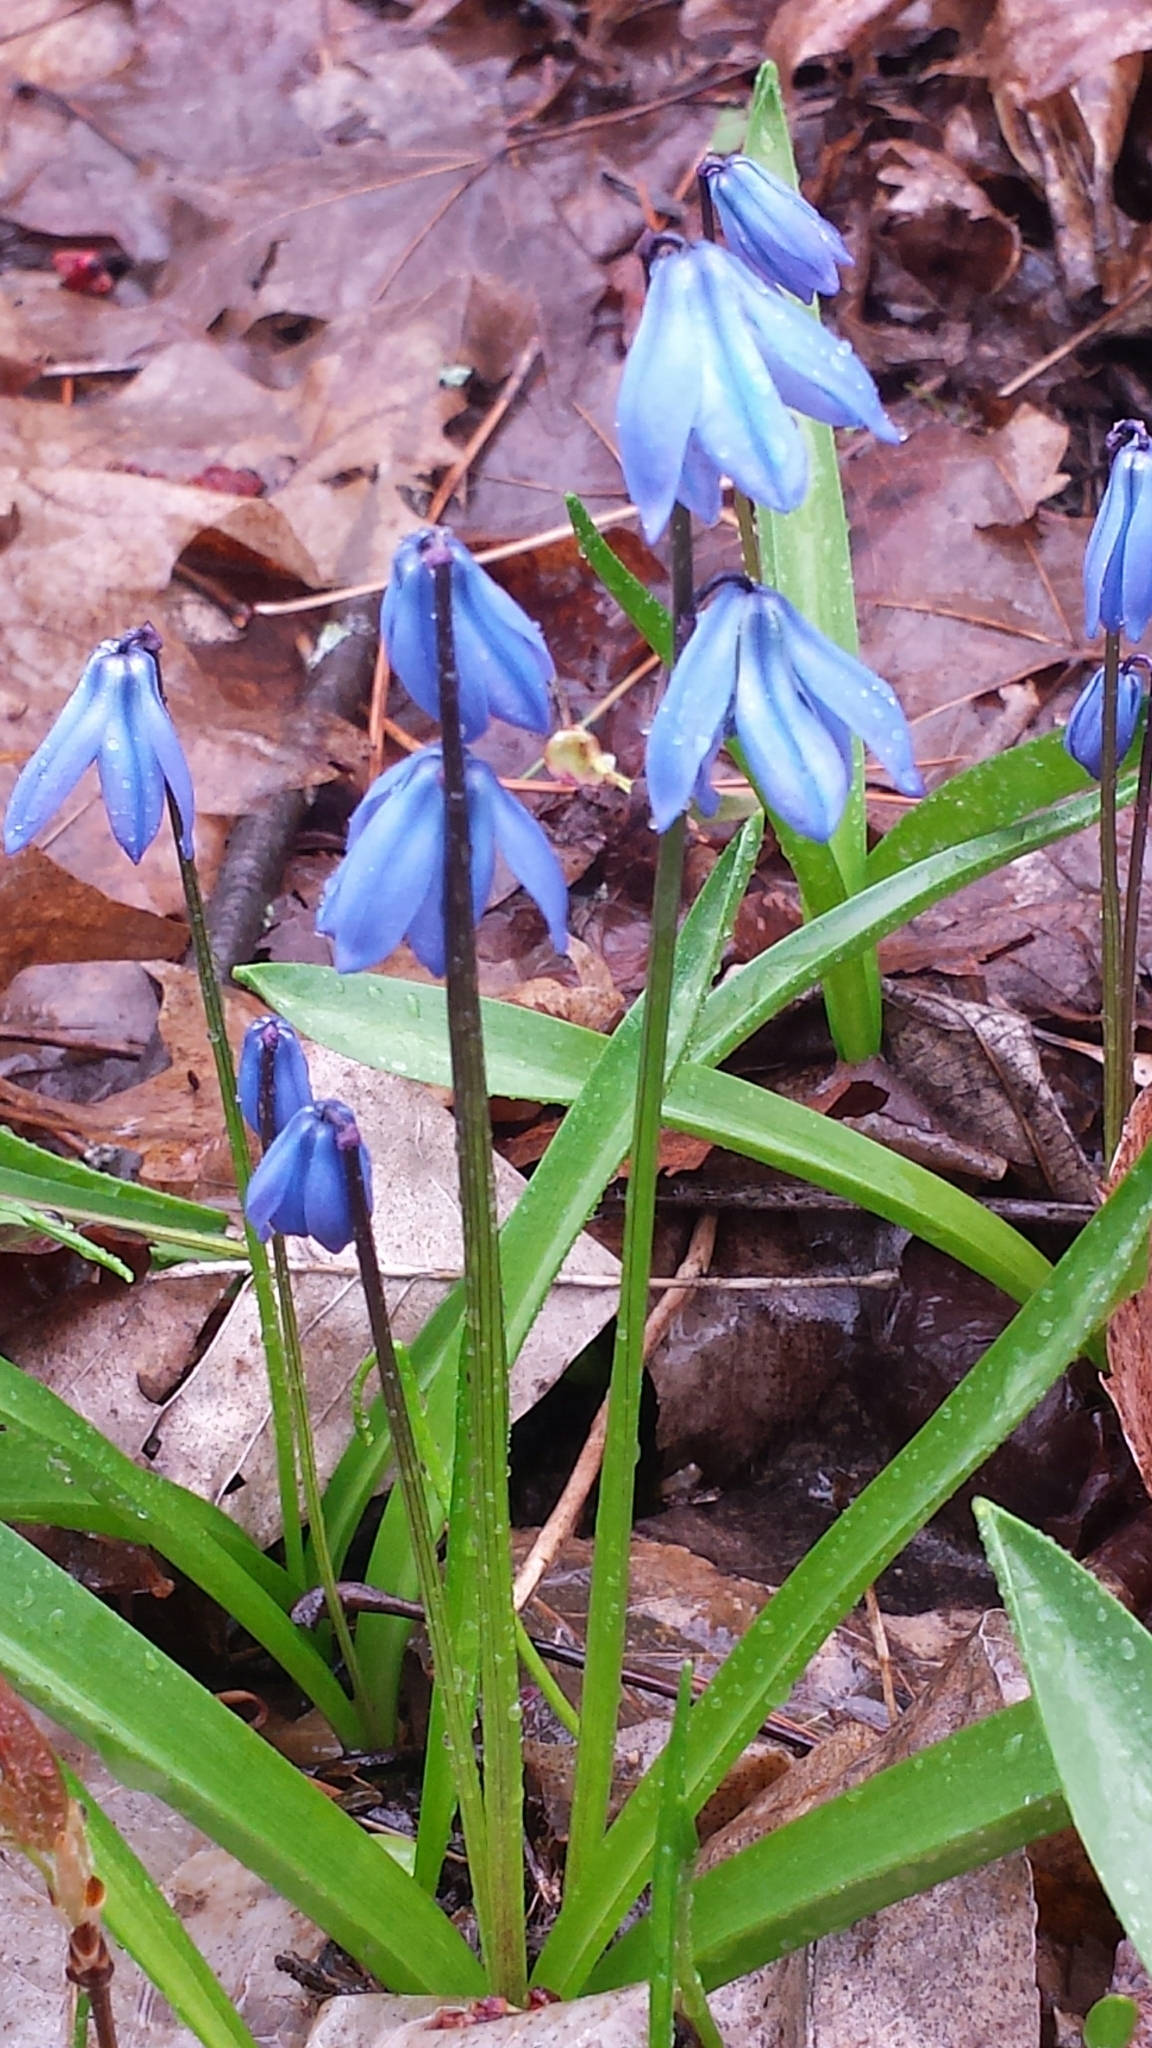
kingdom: Plantae
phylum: Tracheophyta
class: Liliopsida
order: Asparagales
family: Asparagaceae
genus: Scilla
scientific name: Scilla siberica
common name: Siberian squill
